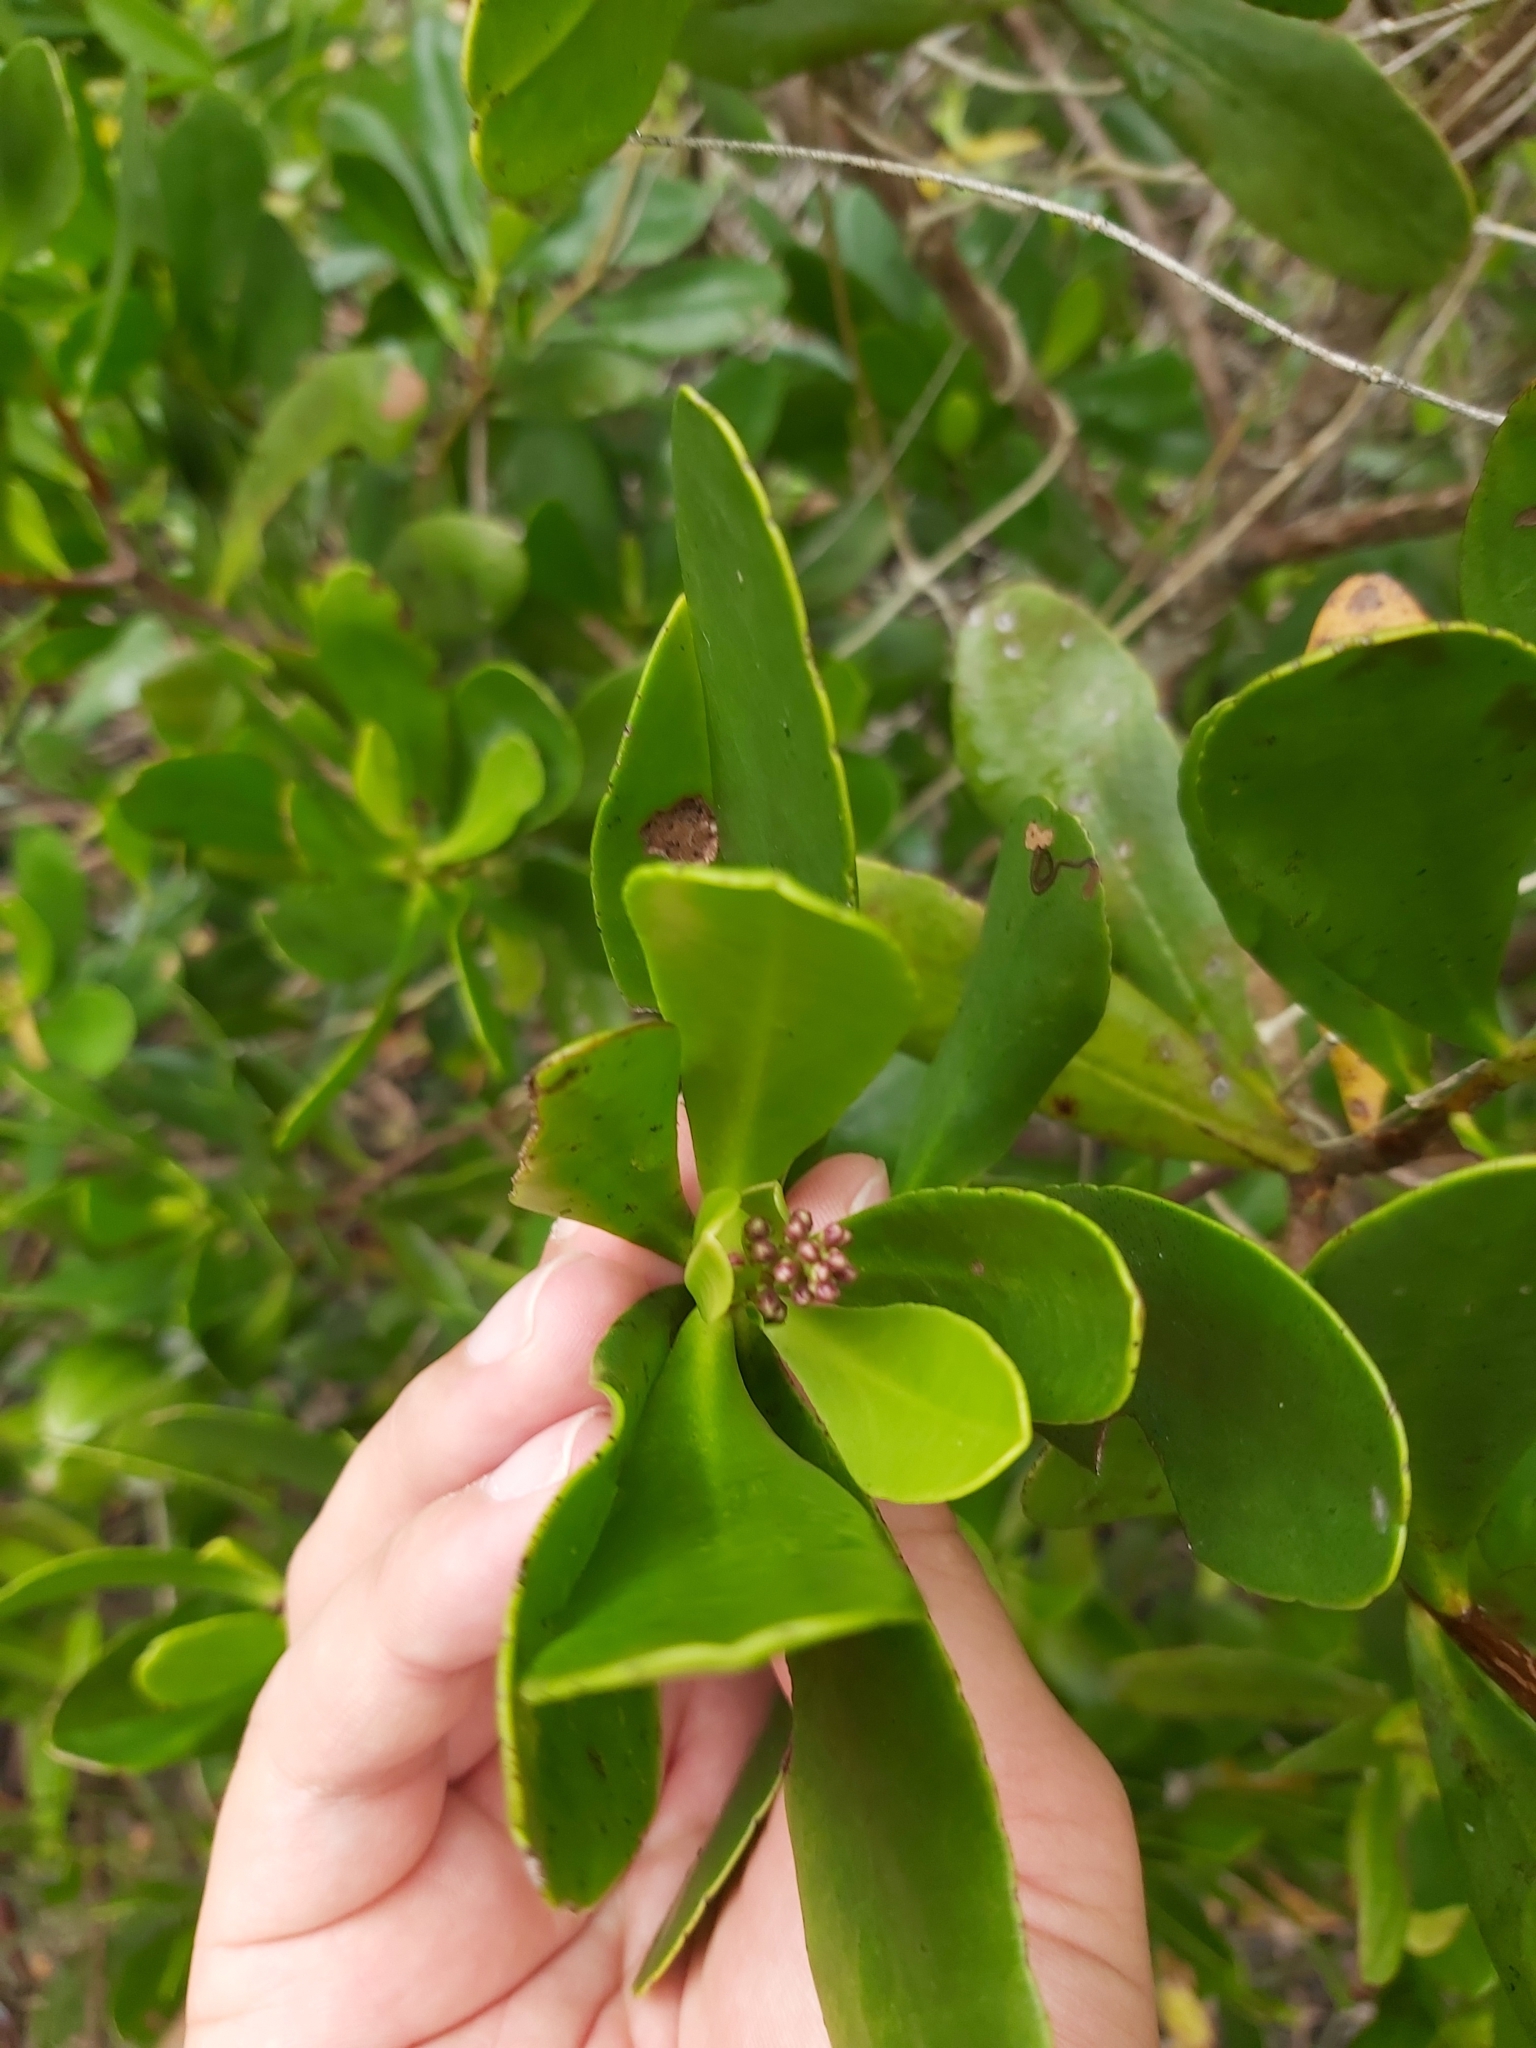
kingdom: Plantae
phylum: Tracheophyta
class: Magnoliopsida
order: Myrtales
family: Combretaceae
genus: Lumnitzera
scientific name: Lumnitzera racemosa
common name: White-flowered black mangrove
